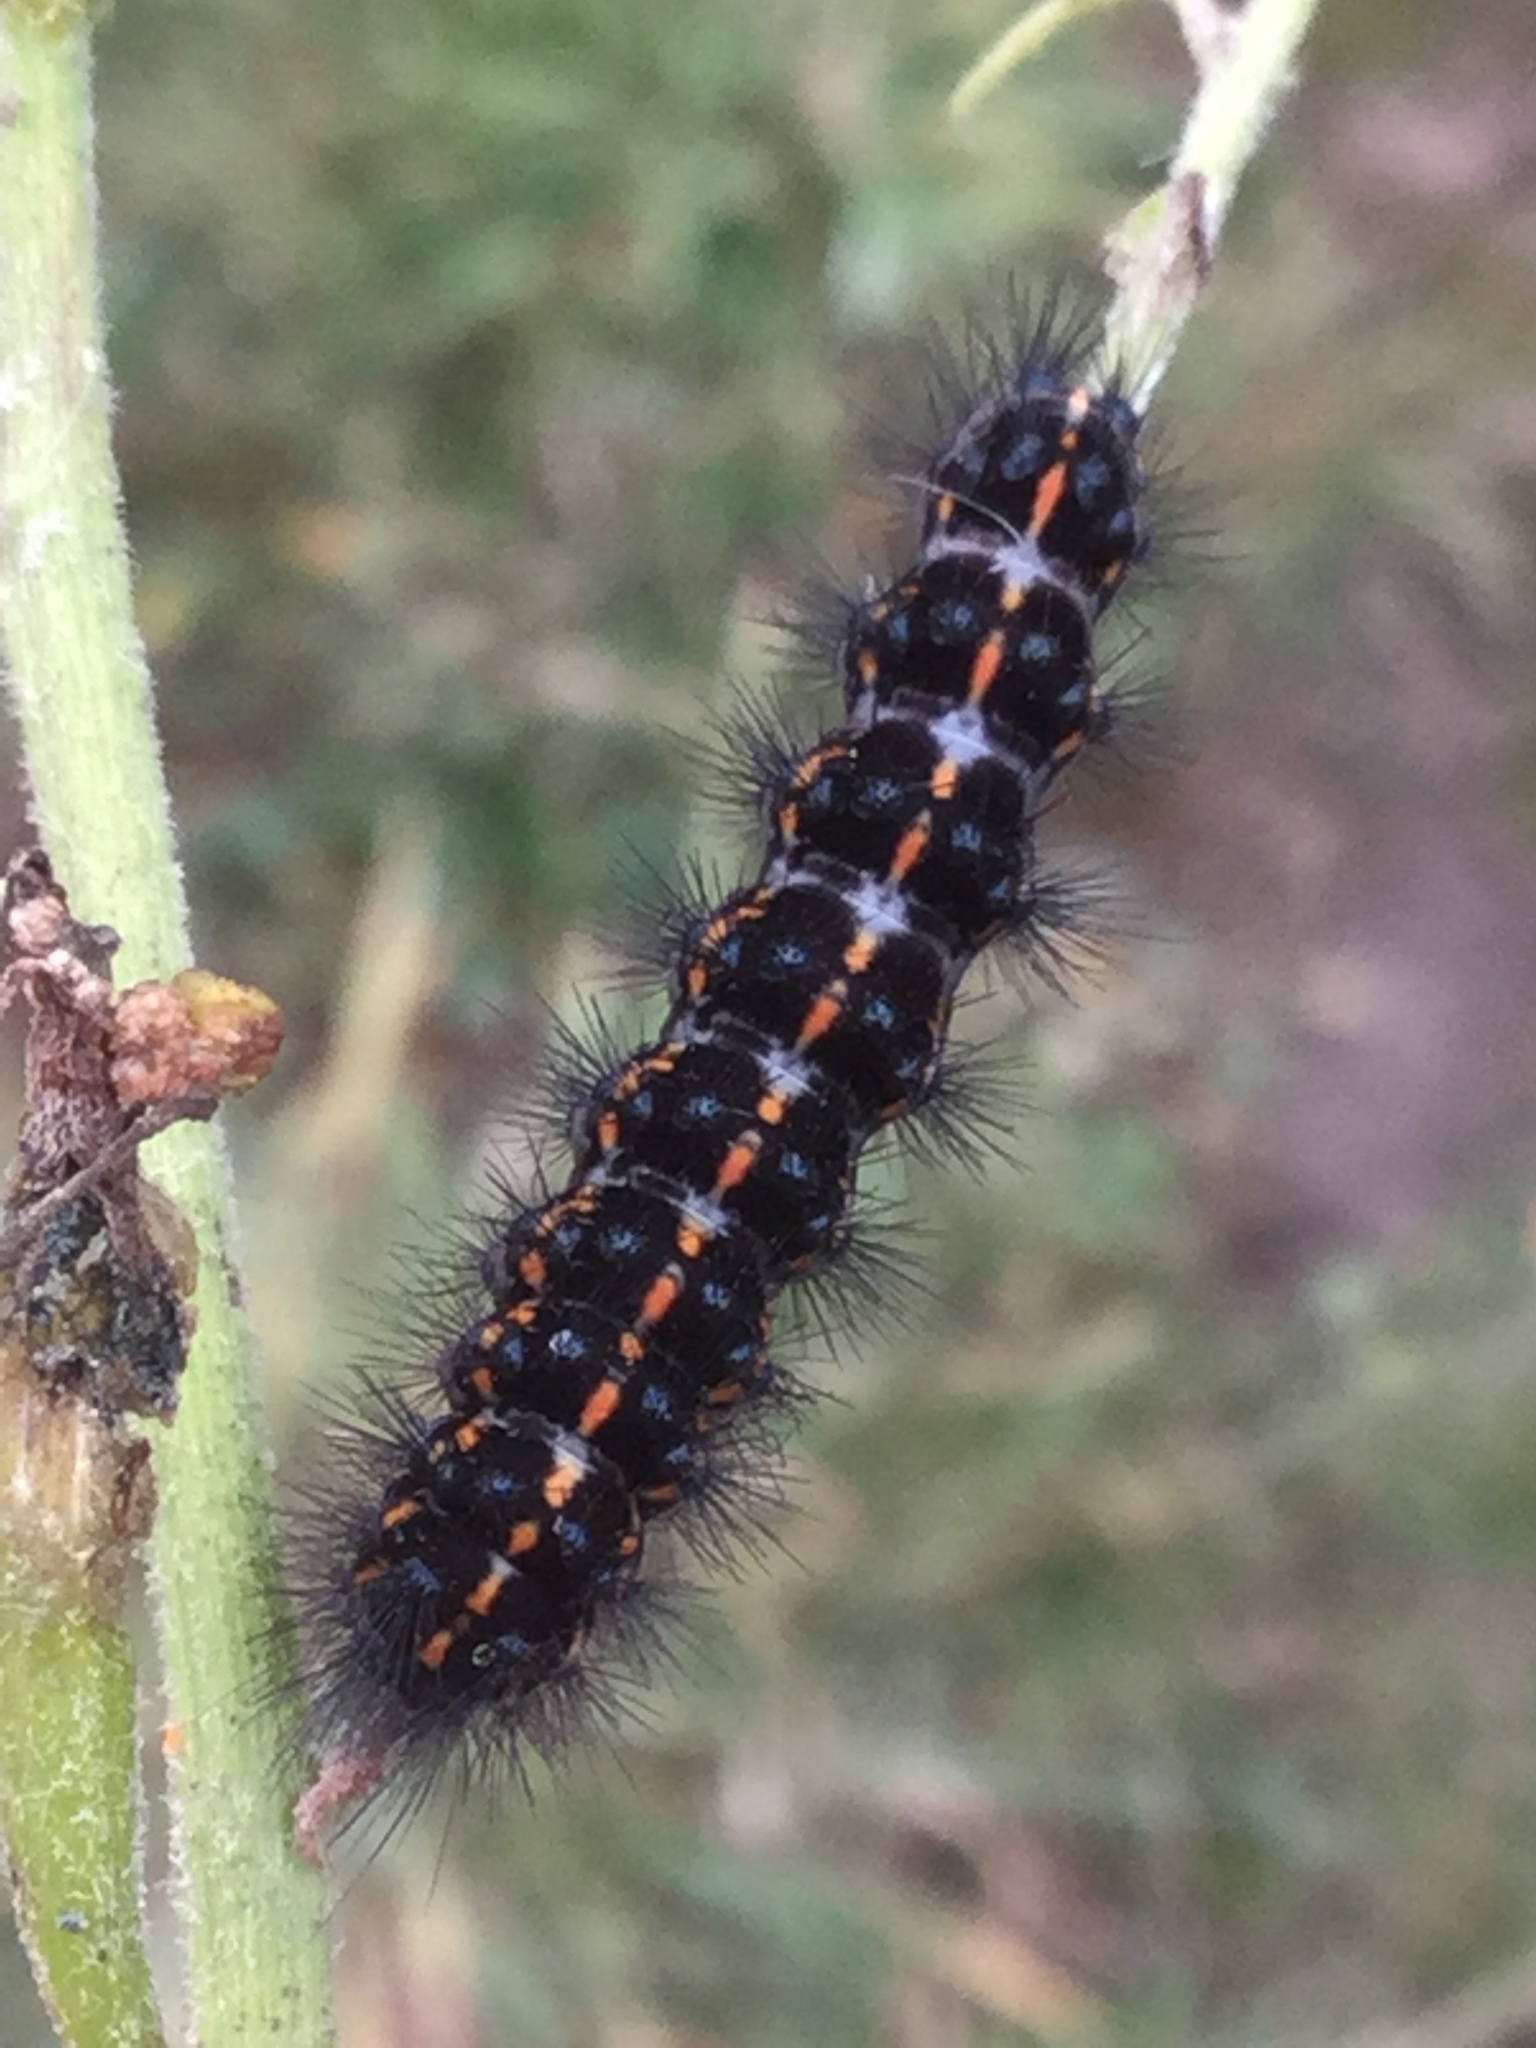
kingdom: Animalia
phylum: Arthropoda
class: Insecta
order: Lepidoptera
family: Erebidae
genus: Nyctemera
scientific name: Nyctemera annulatum
